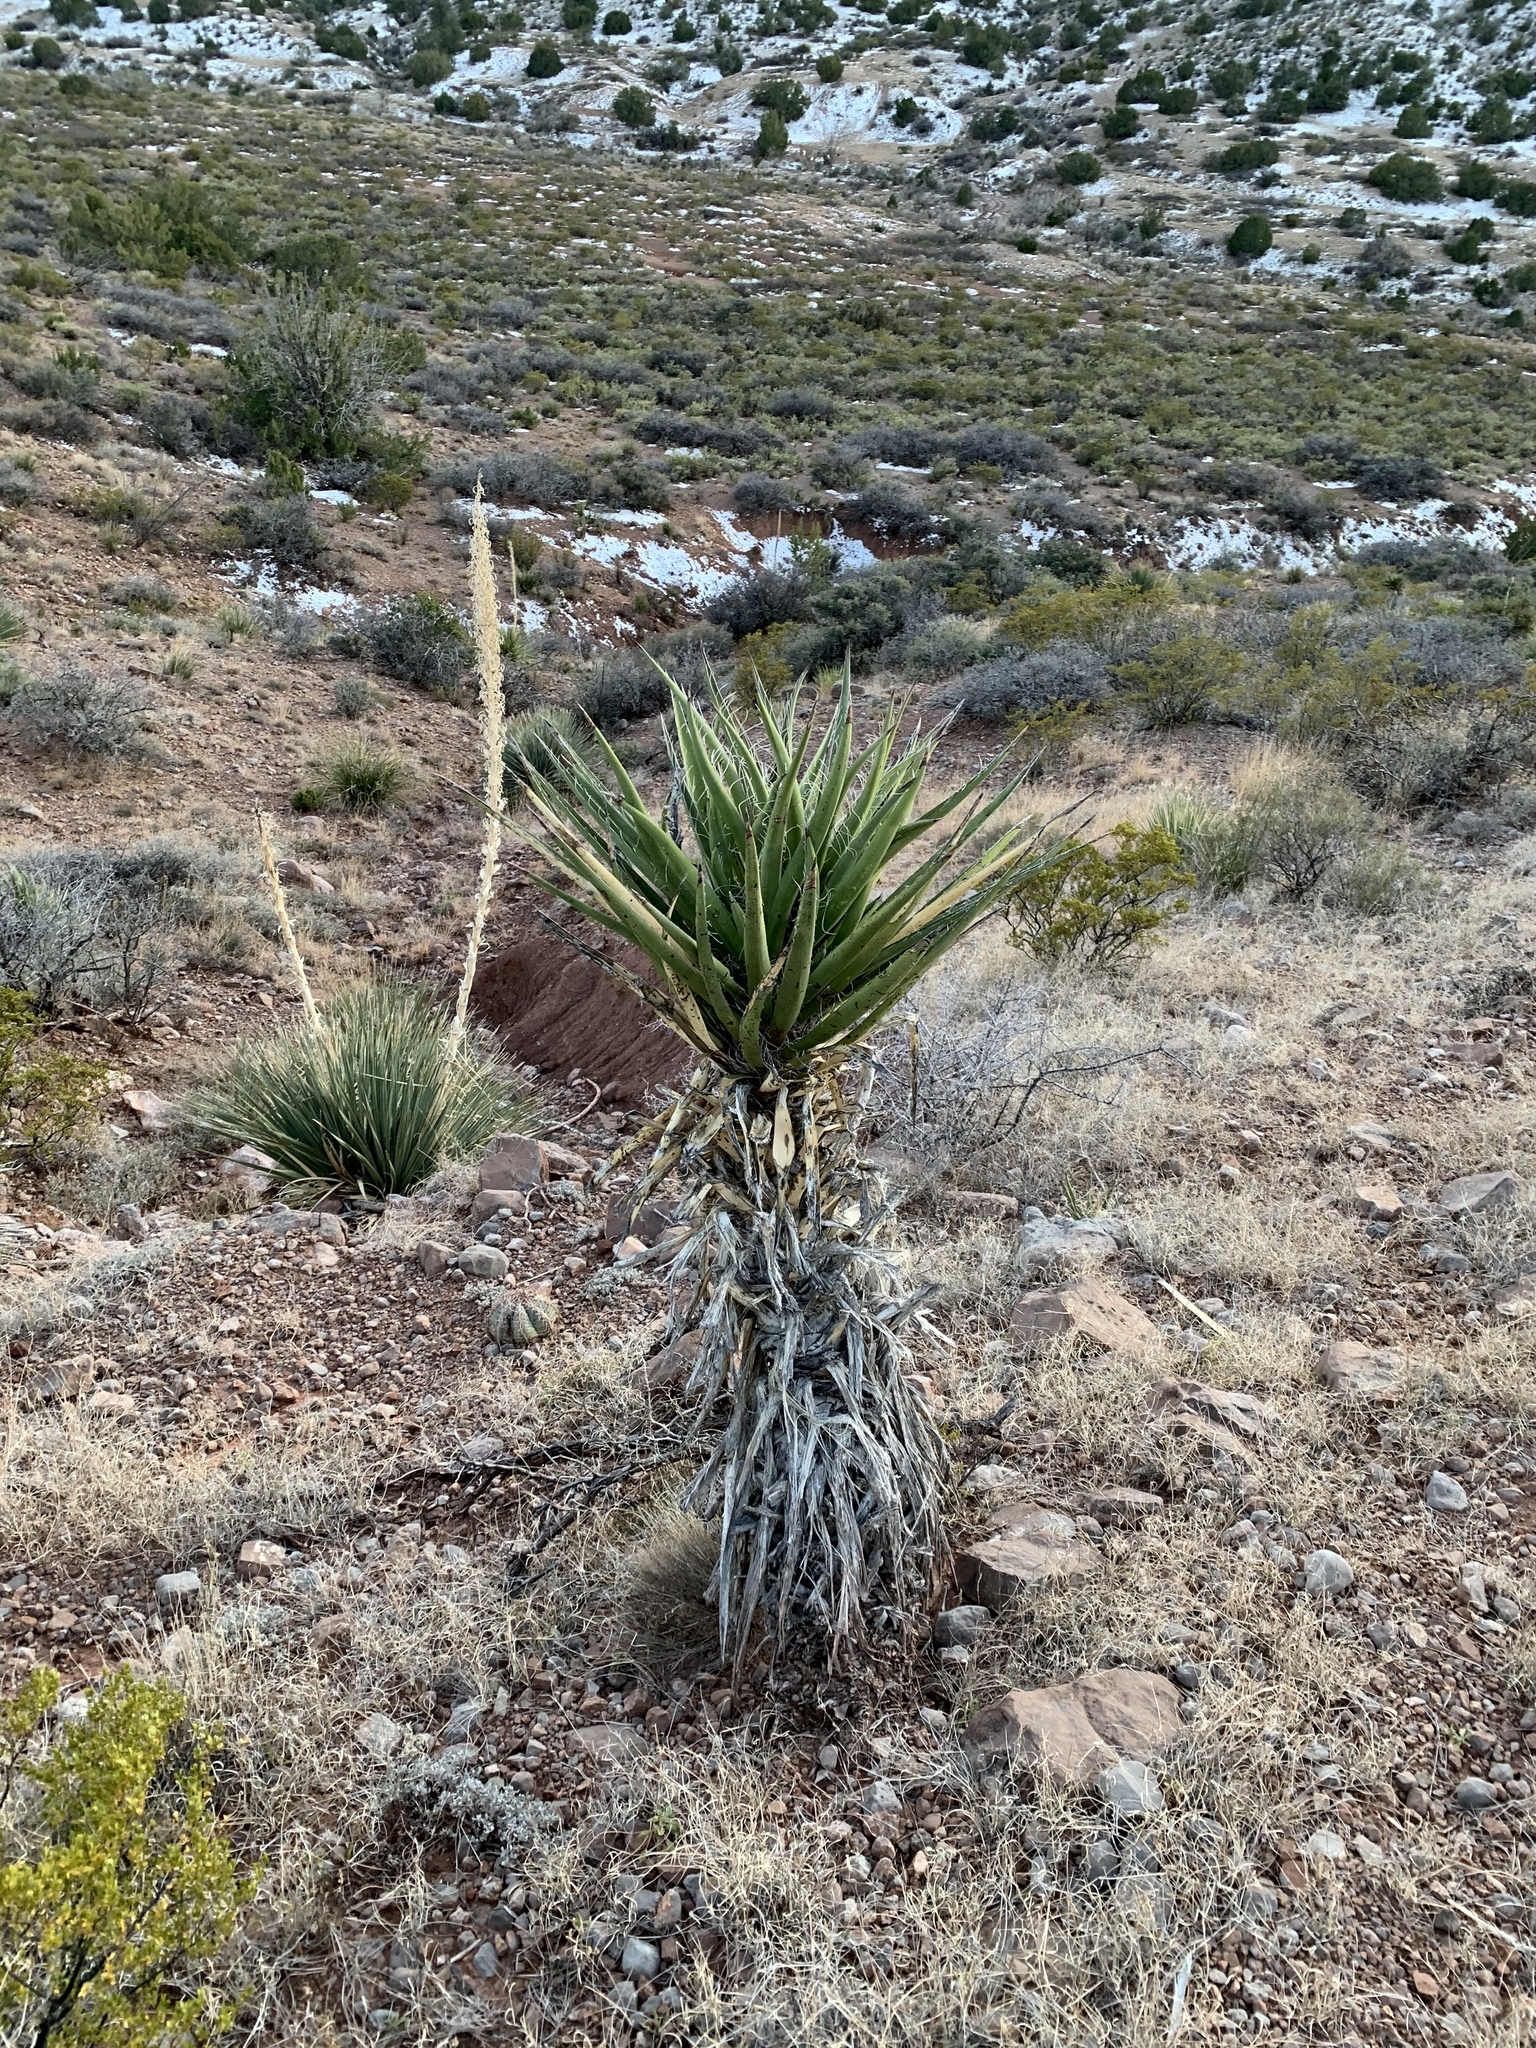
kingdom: Plantae
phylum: Tracheophyta
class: Liliopsida
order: Asparagales
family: Asparagaceae
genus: Yucca
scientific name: Yucca treculiana
